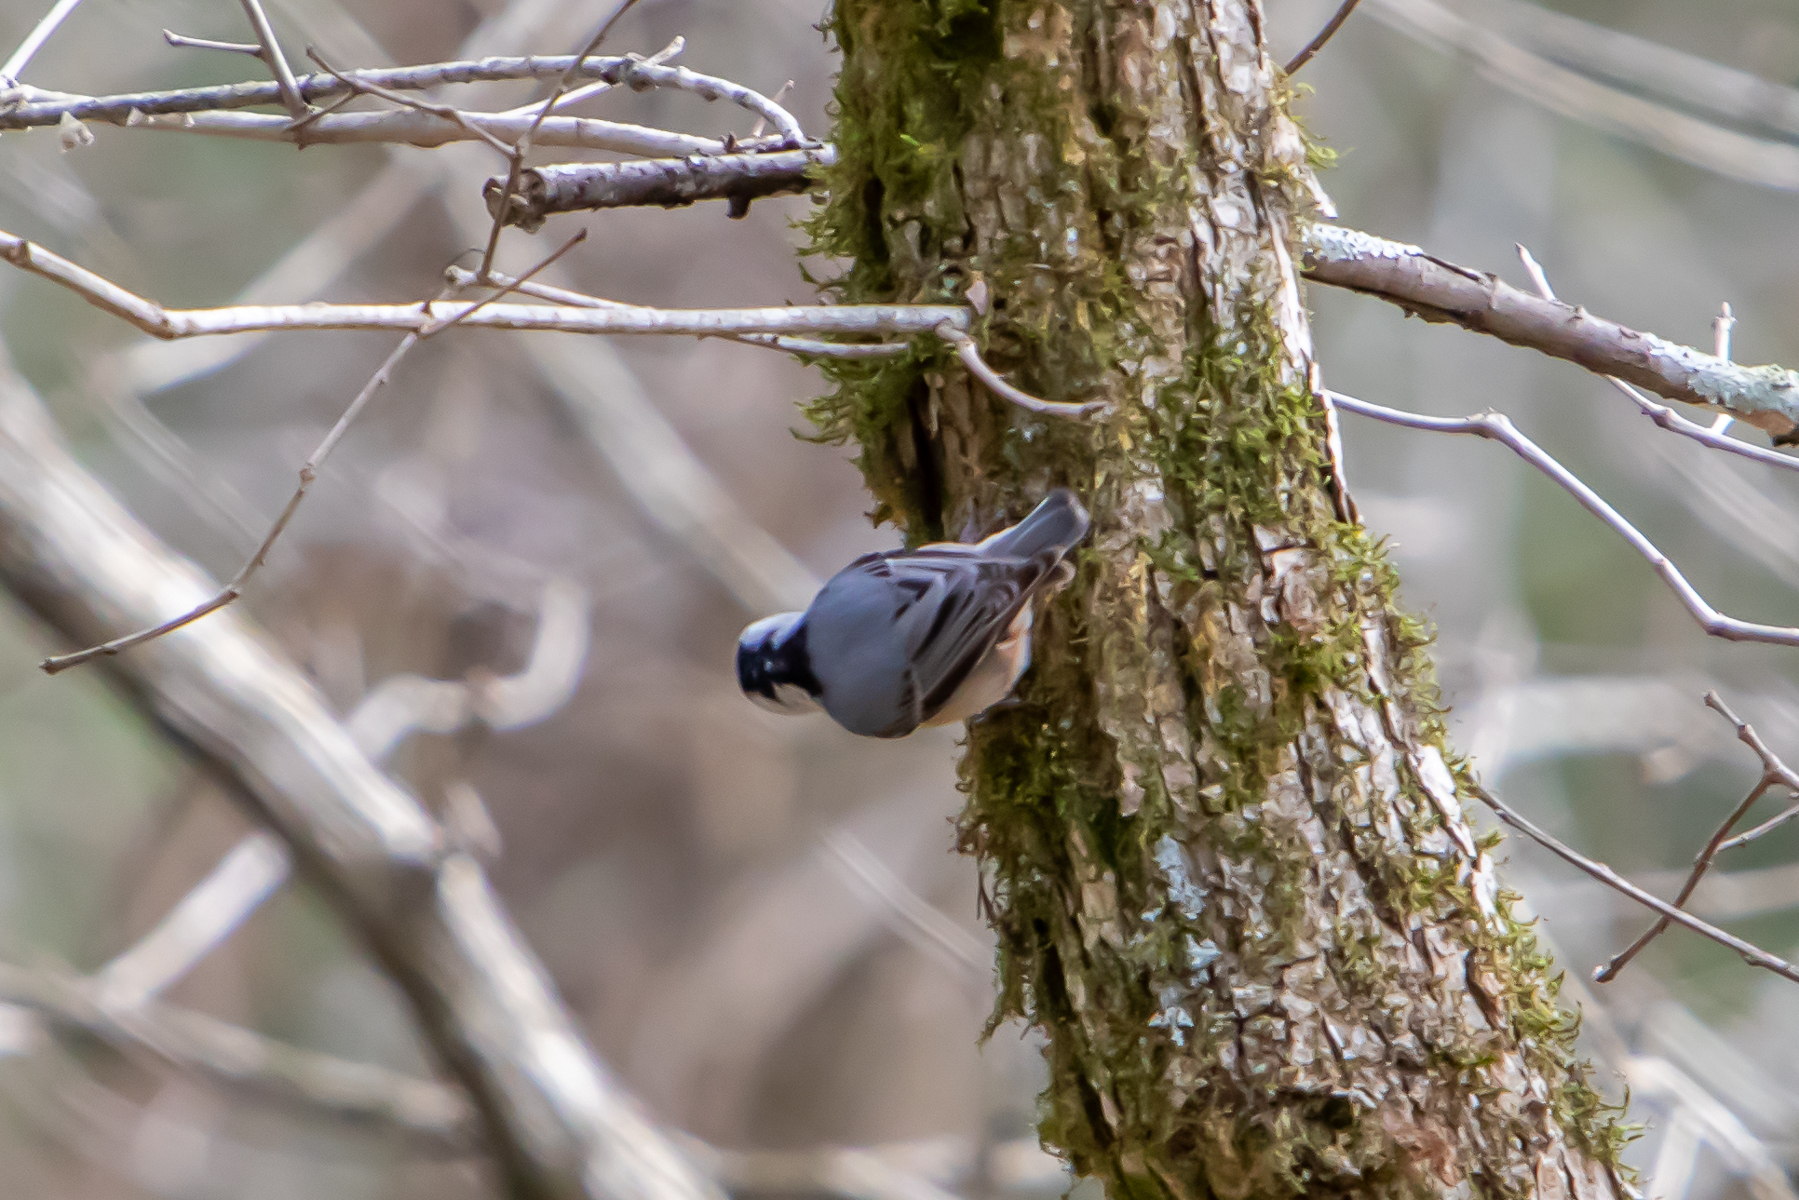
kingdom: Animalia
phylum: Chordata
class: Aves
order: Passeriformes
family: Sittidae
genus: Sitta
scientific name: Sitta carolinensis
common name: White-breasted nuthatch
